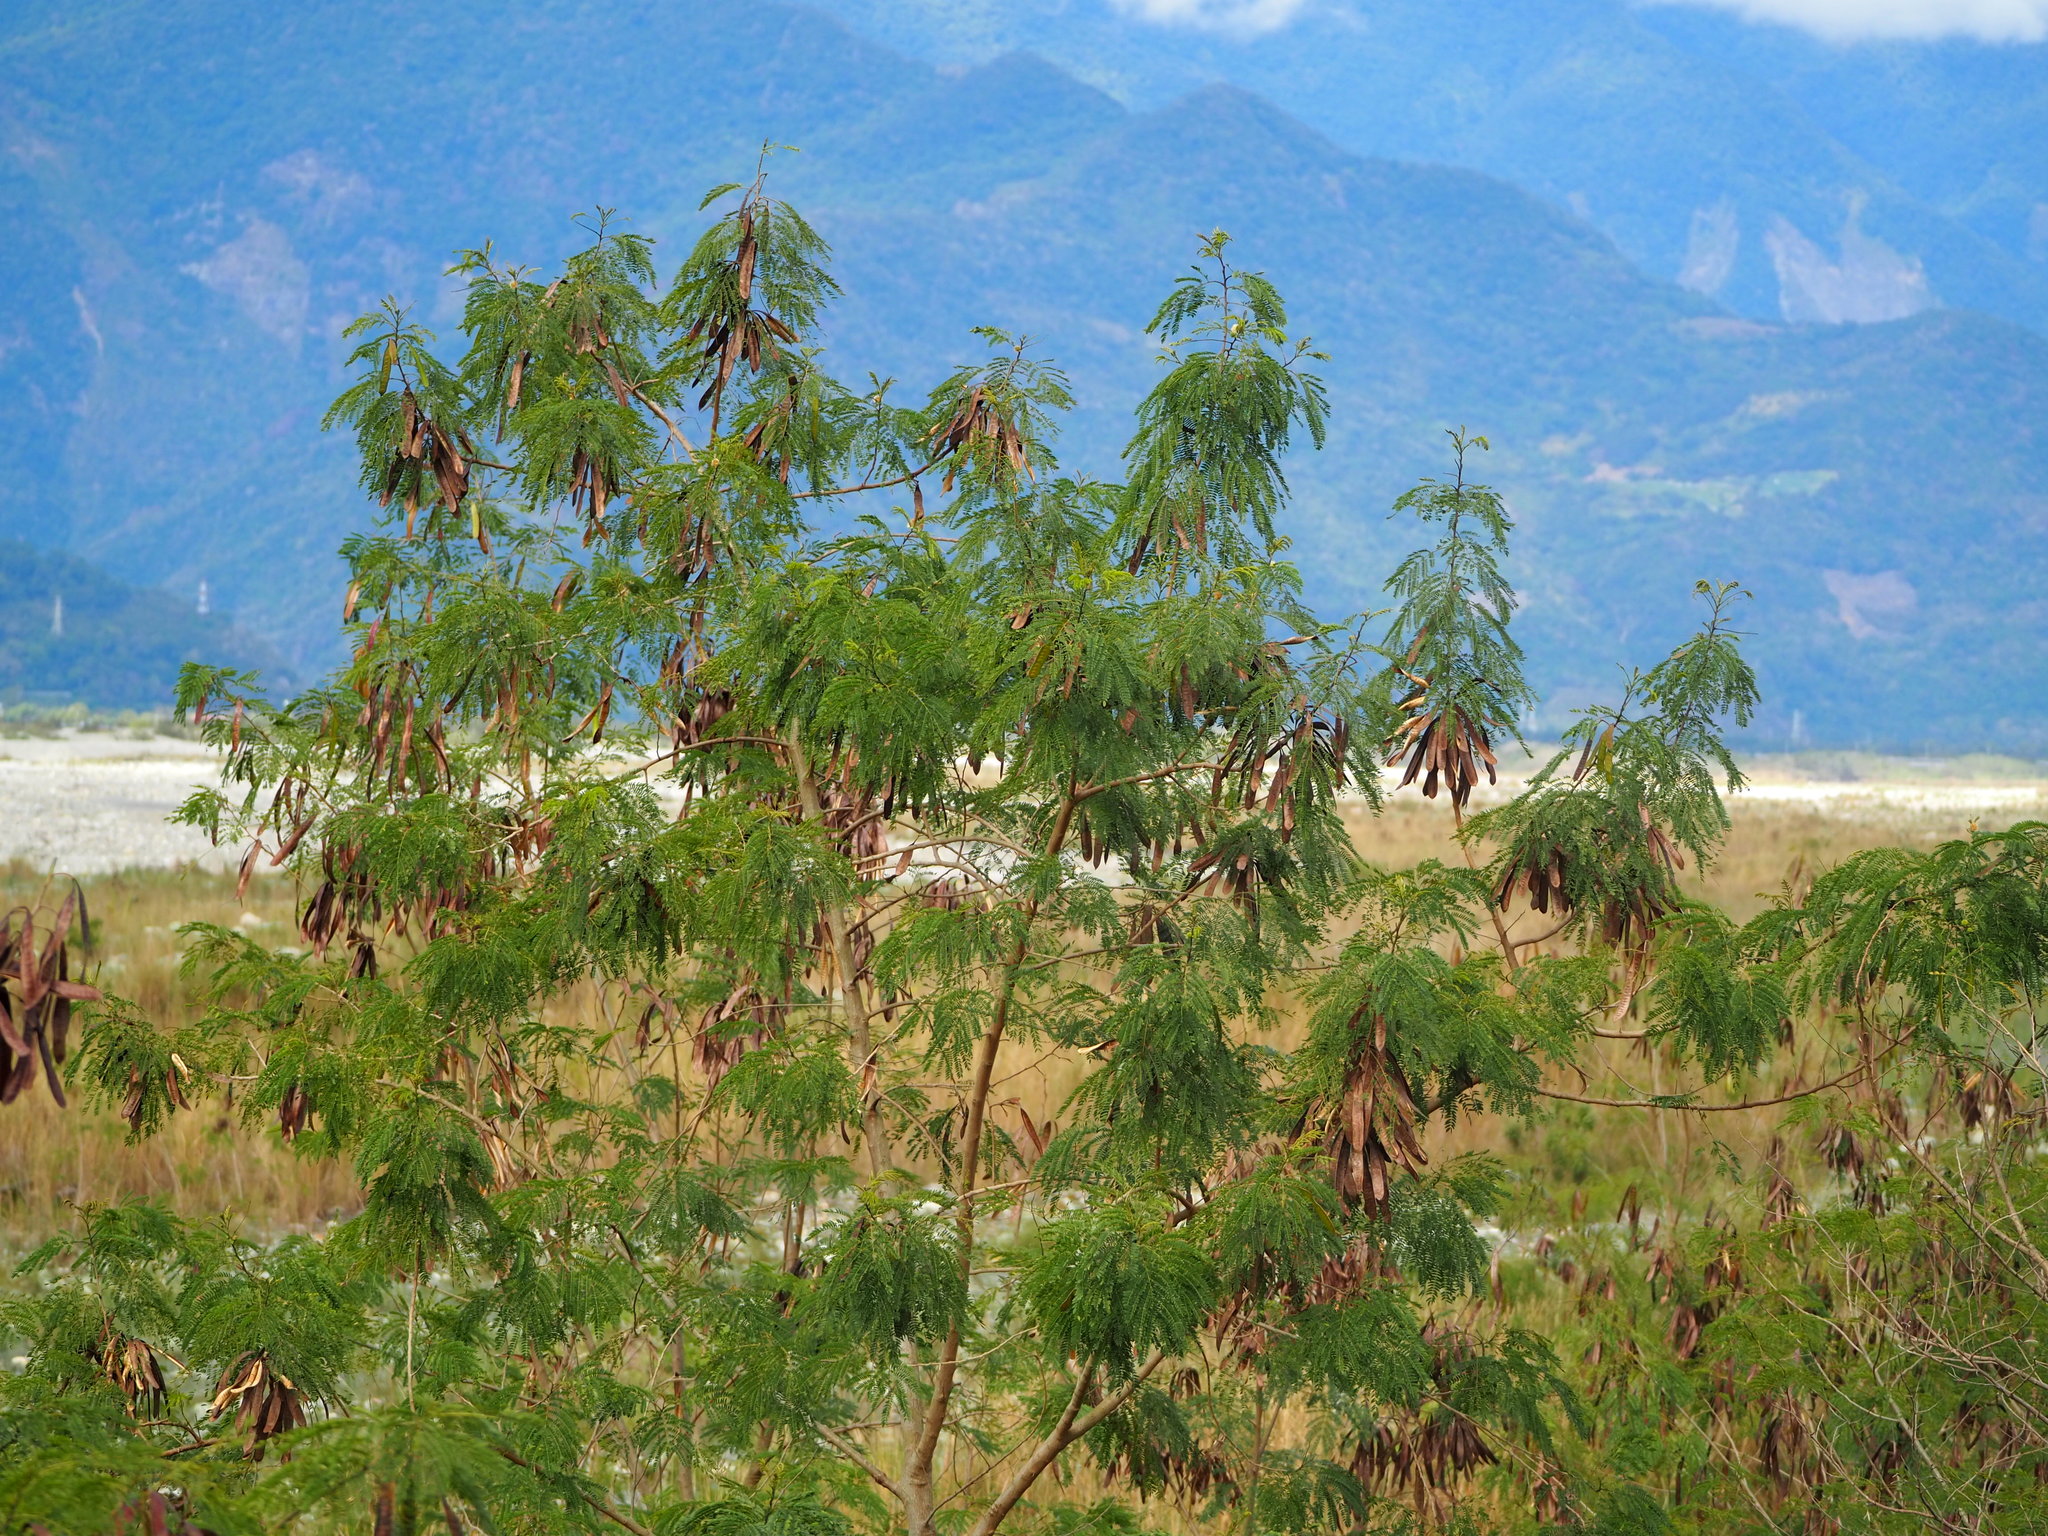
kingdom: Plantae
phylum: Tracheophyta
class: Magnoliopsida
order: Fabales
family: Fabaceae
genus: Leucaena
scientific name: Leucaena leucocephala
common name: White leadtree
